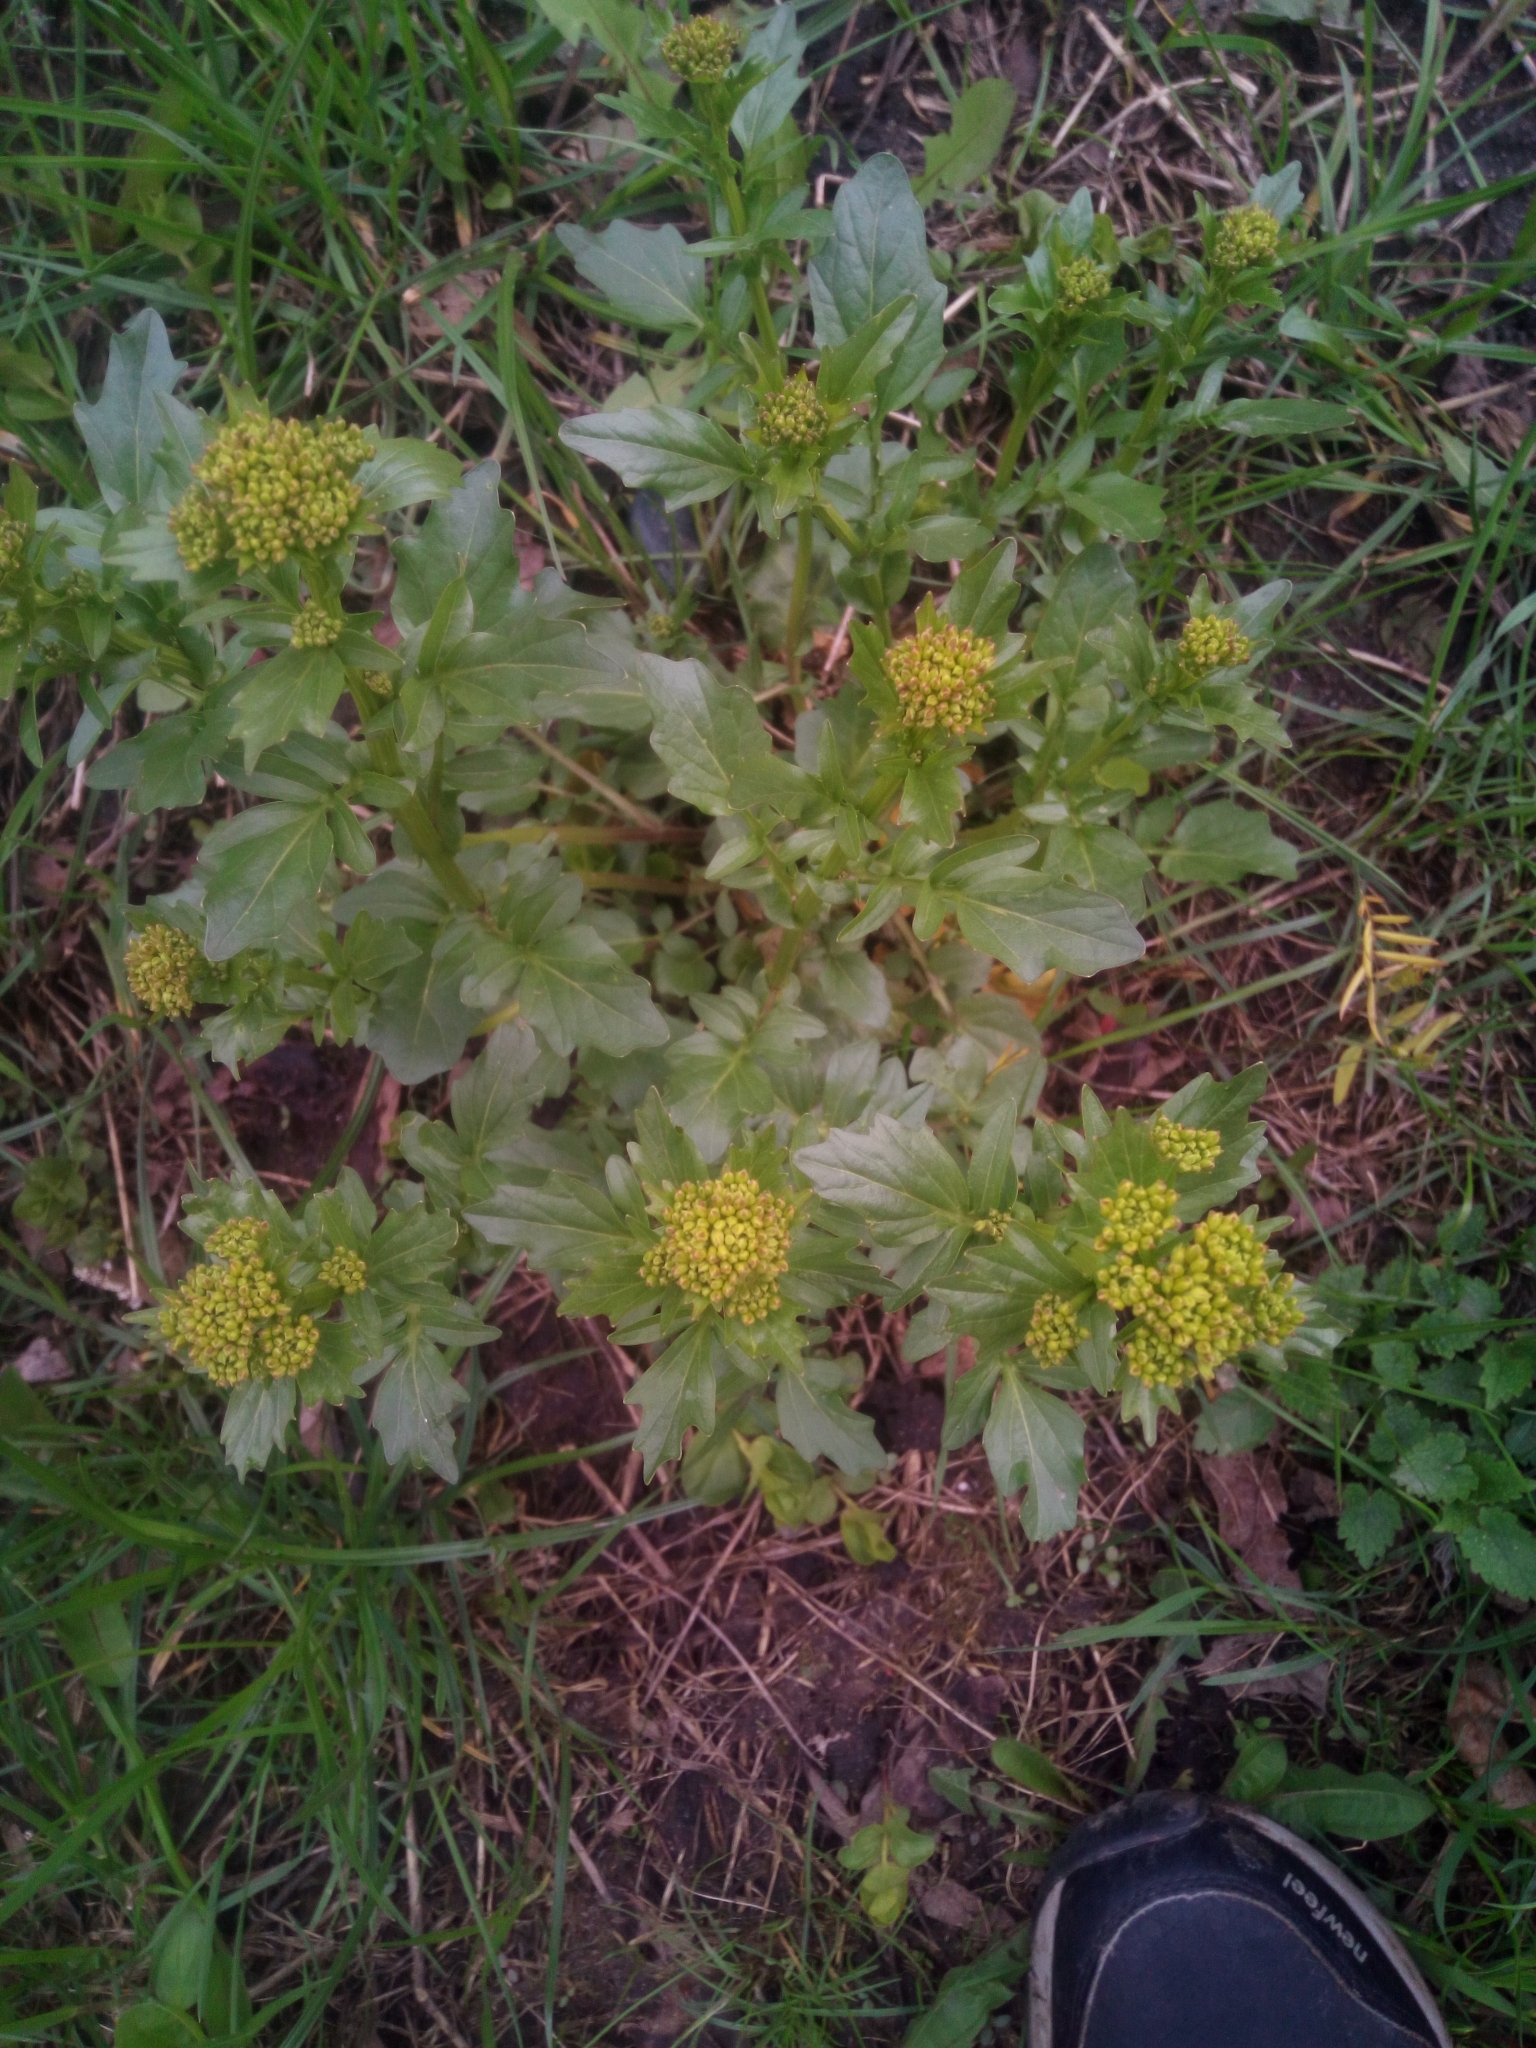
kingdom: Plantae
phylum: Tracheophyta
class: Magnoliopsida
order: Brassicales
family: Brassicaceae
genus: Barbarea
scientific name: Barbarea vulgaris
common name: Cressy-greens
